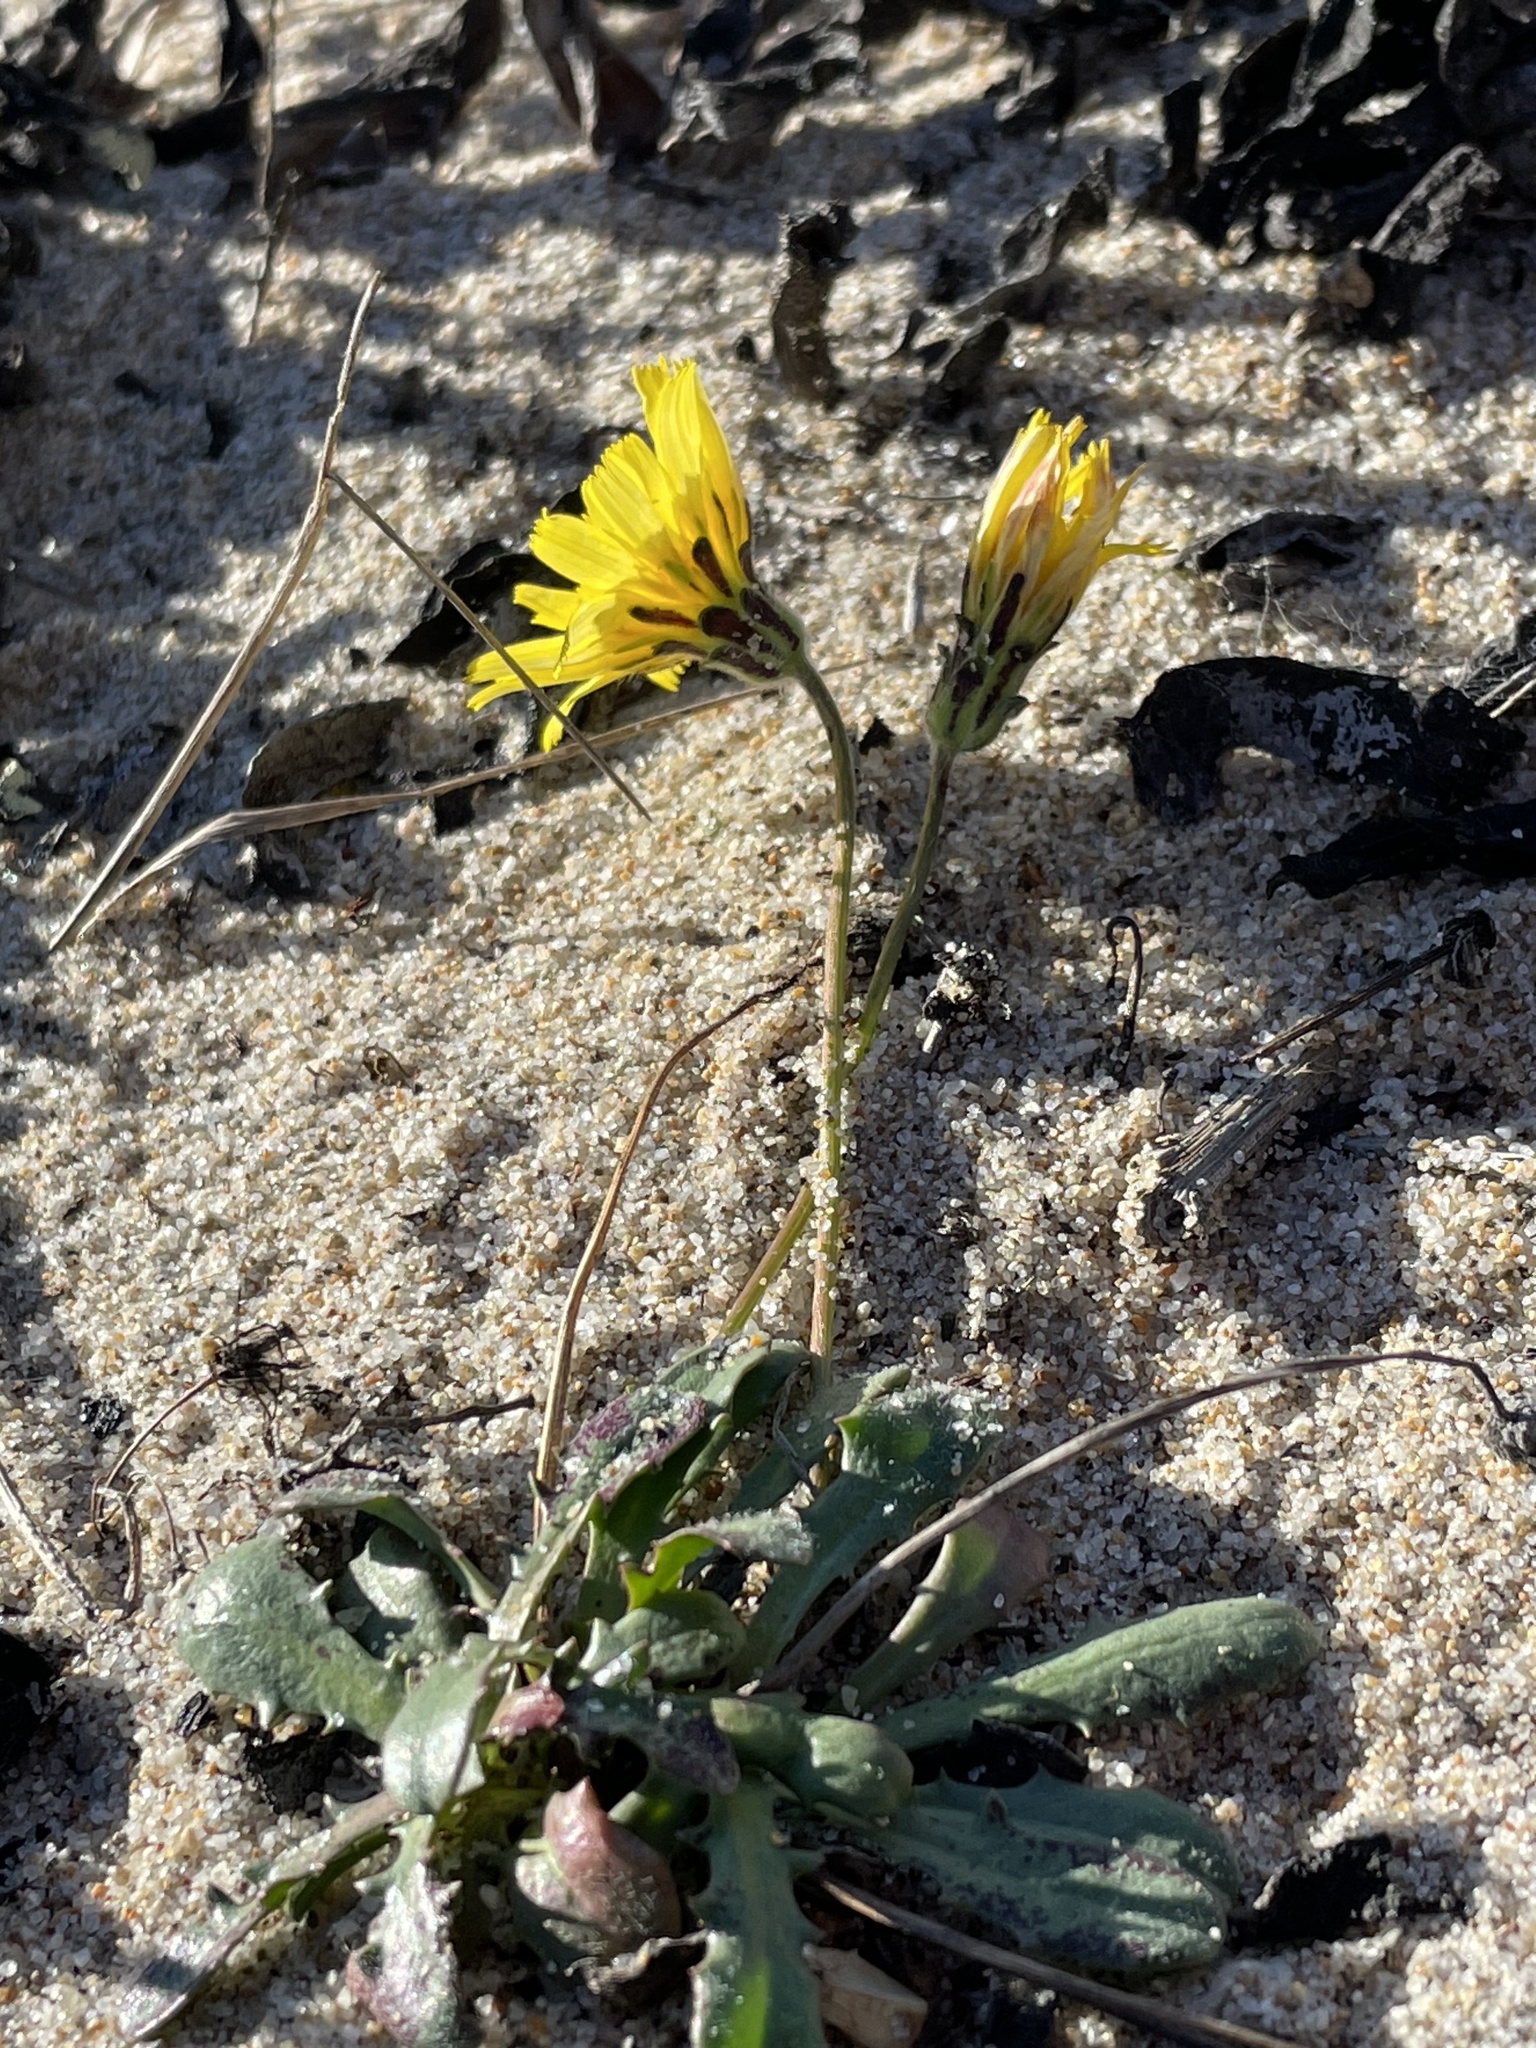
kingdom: Plantae
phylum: Tracheophyta
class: Magnoliopsida
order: Asterales
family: Asteraceae
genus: Agoseris
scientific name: Agoseris apargioides
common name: Point reyes agoseris
